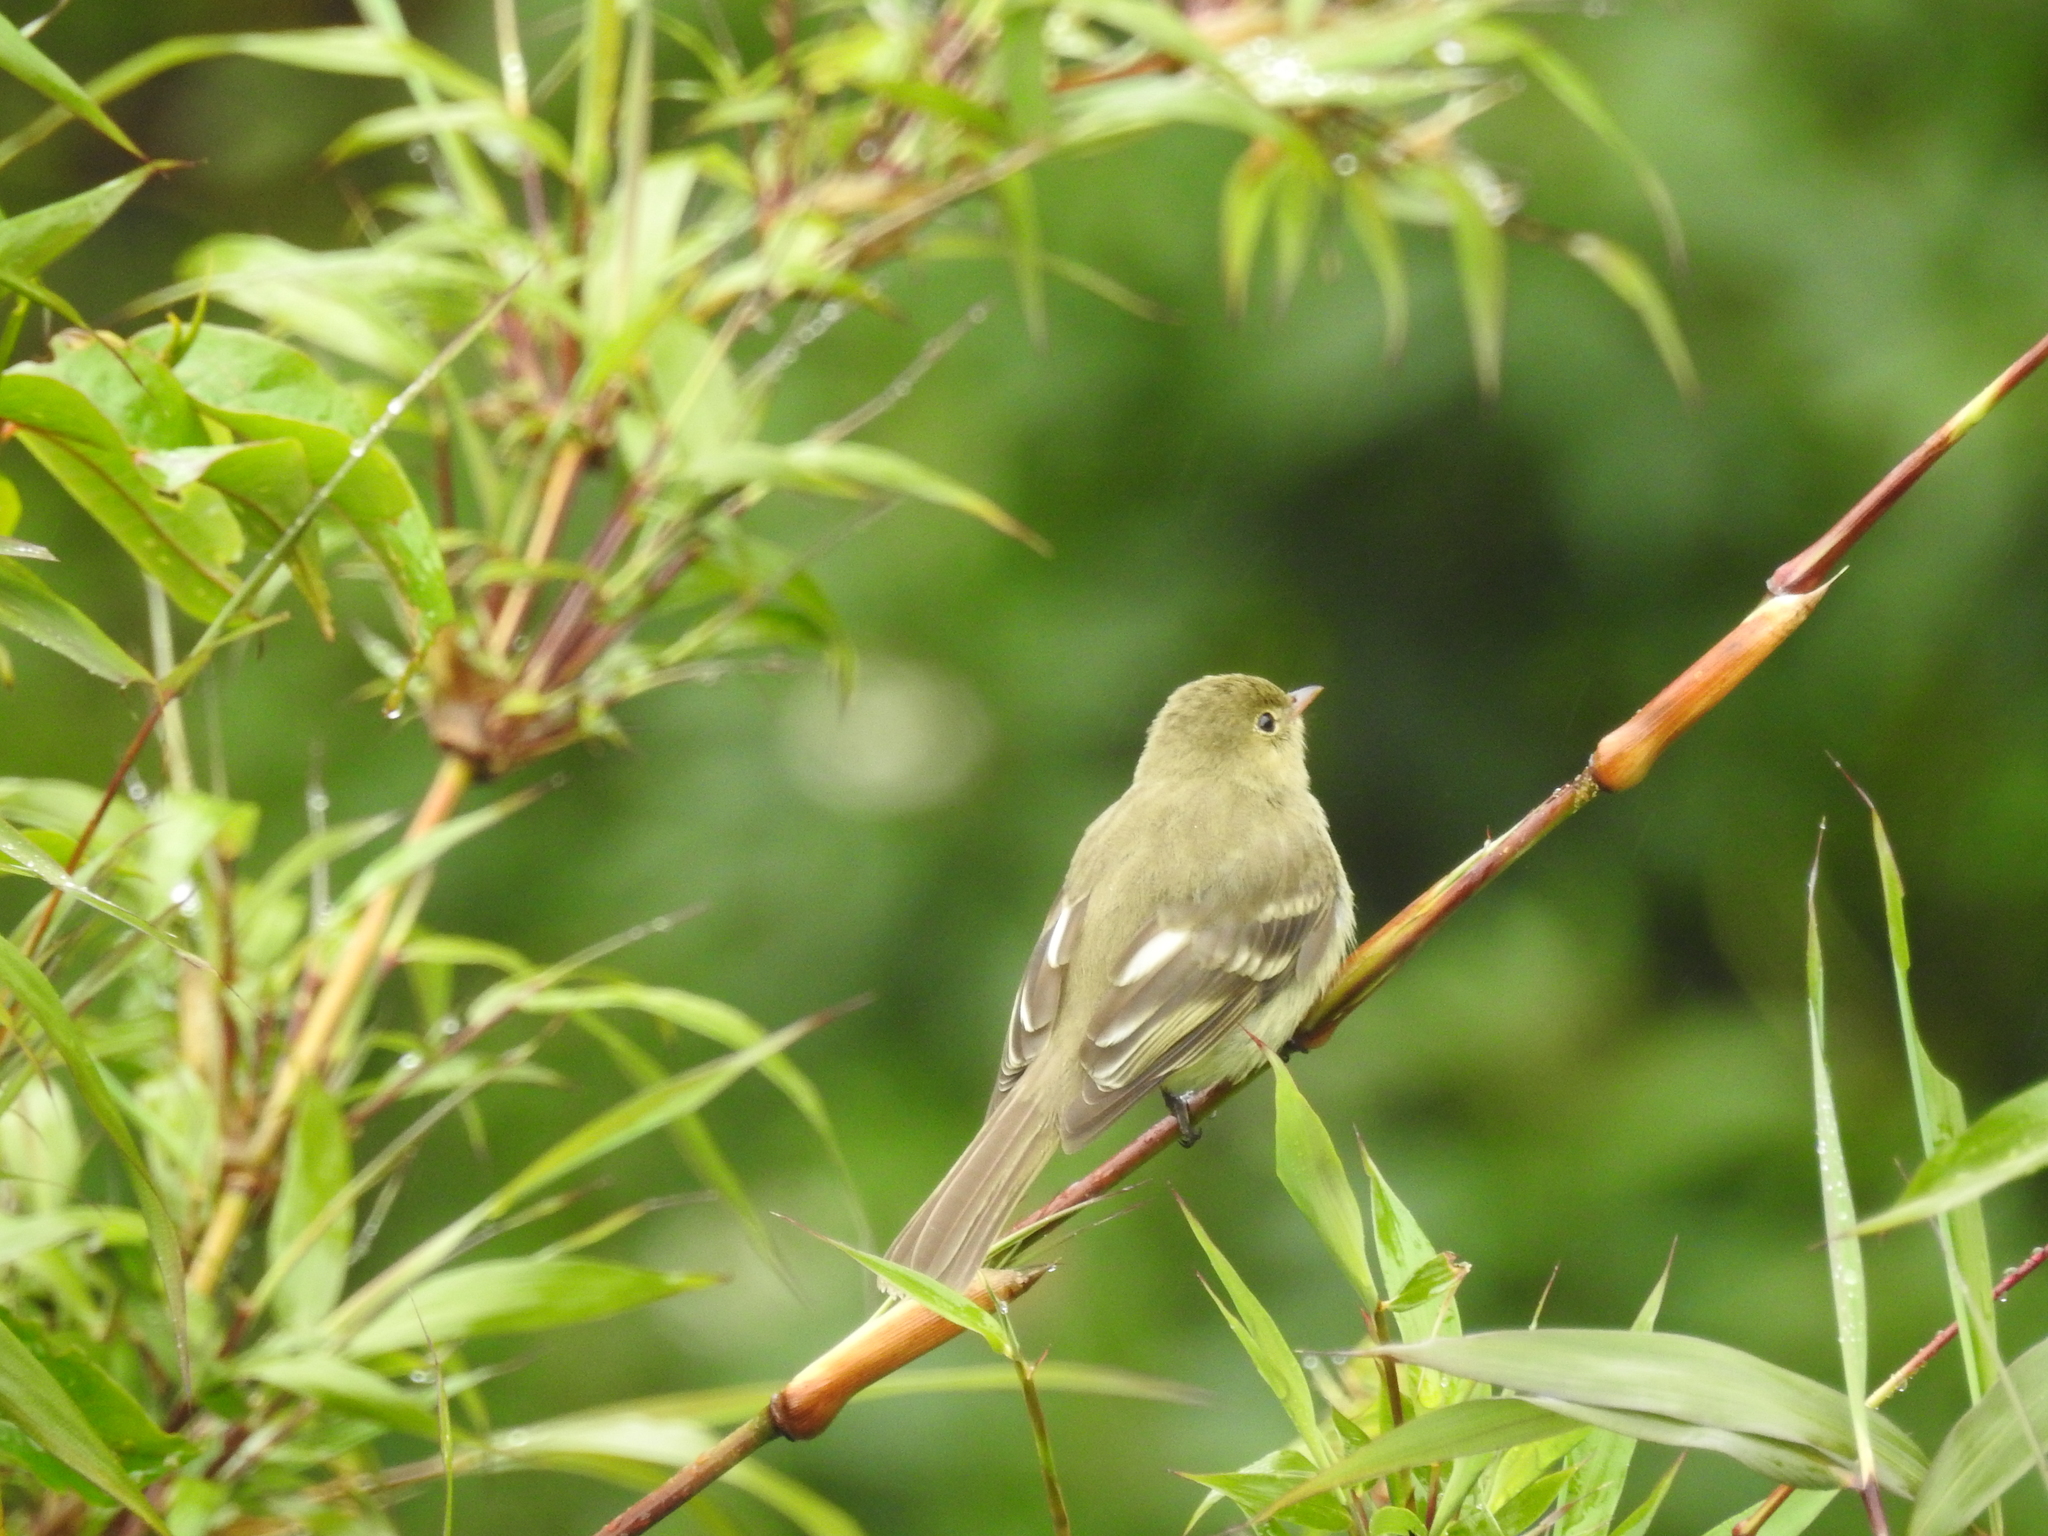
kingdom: Animalia
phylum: Chordata
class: Aves
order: Passeriformes
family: Tyrannidae
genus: Elaenia
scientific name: Elaenia frantzii
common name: Mountain elaenia
